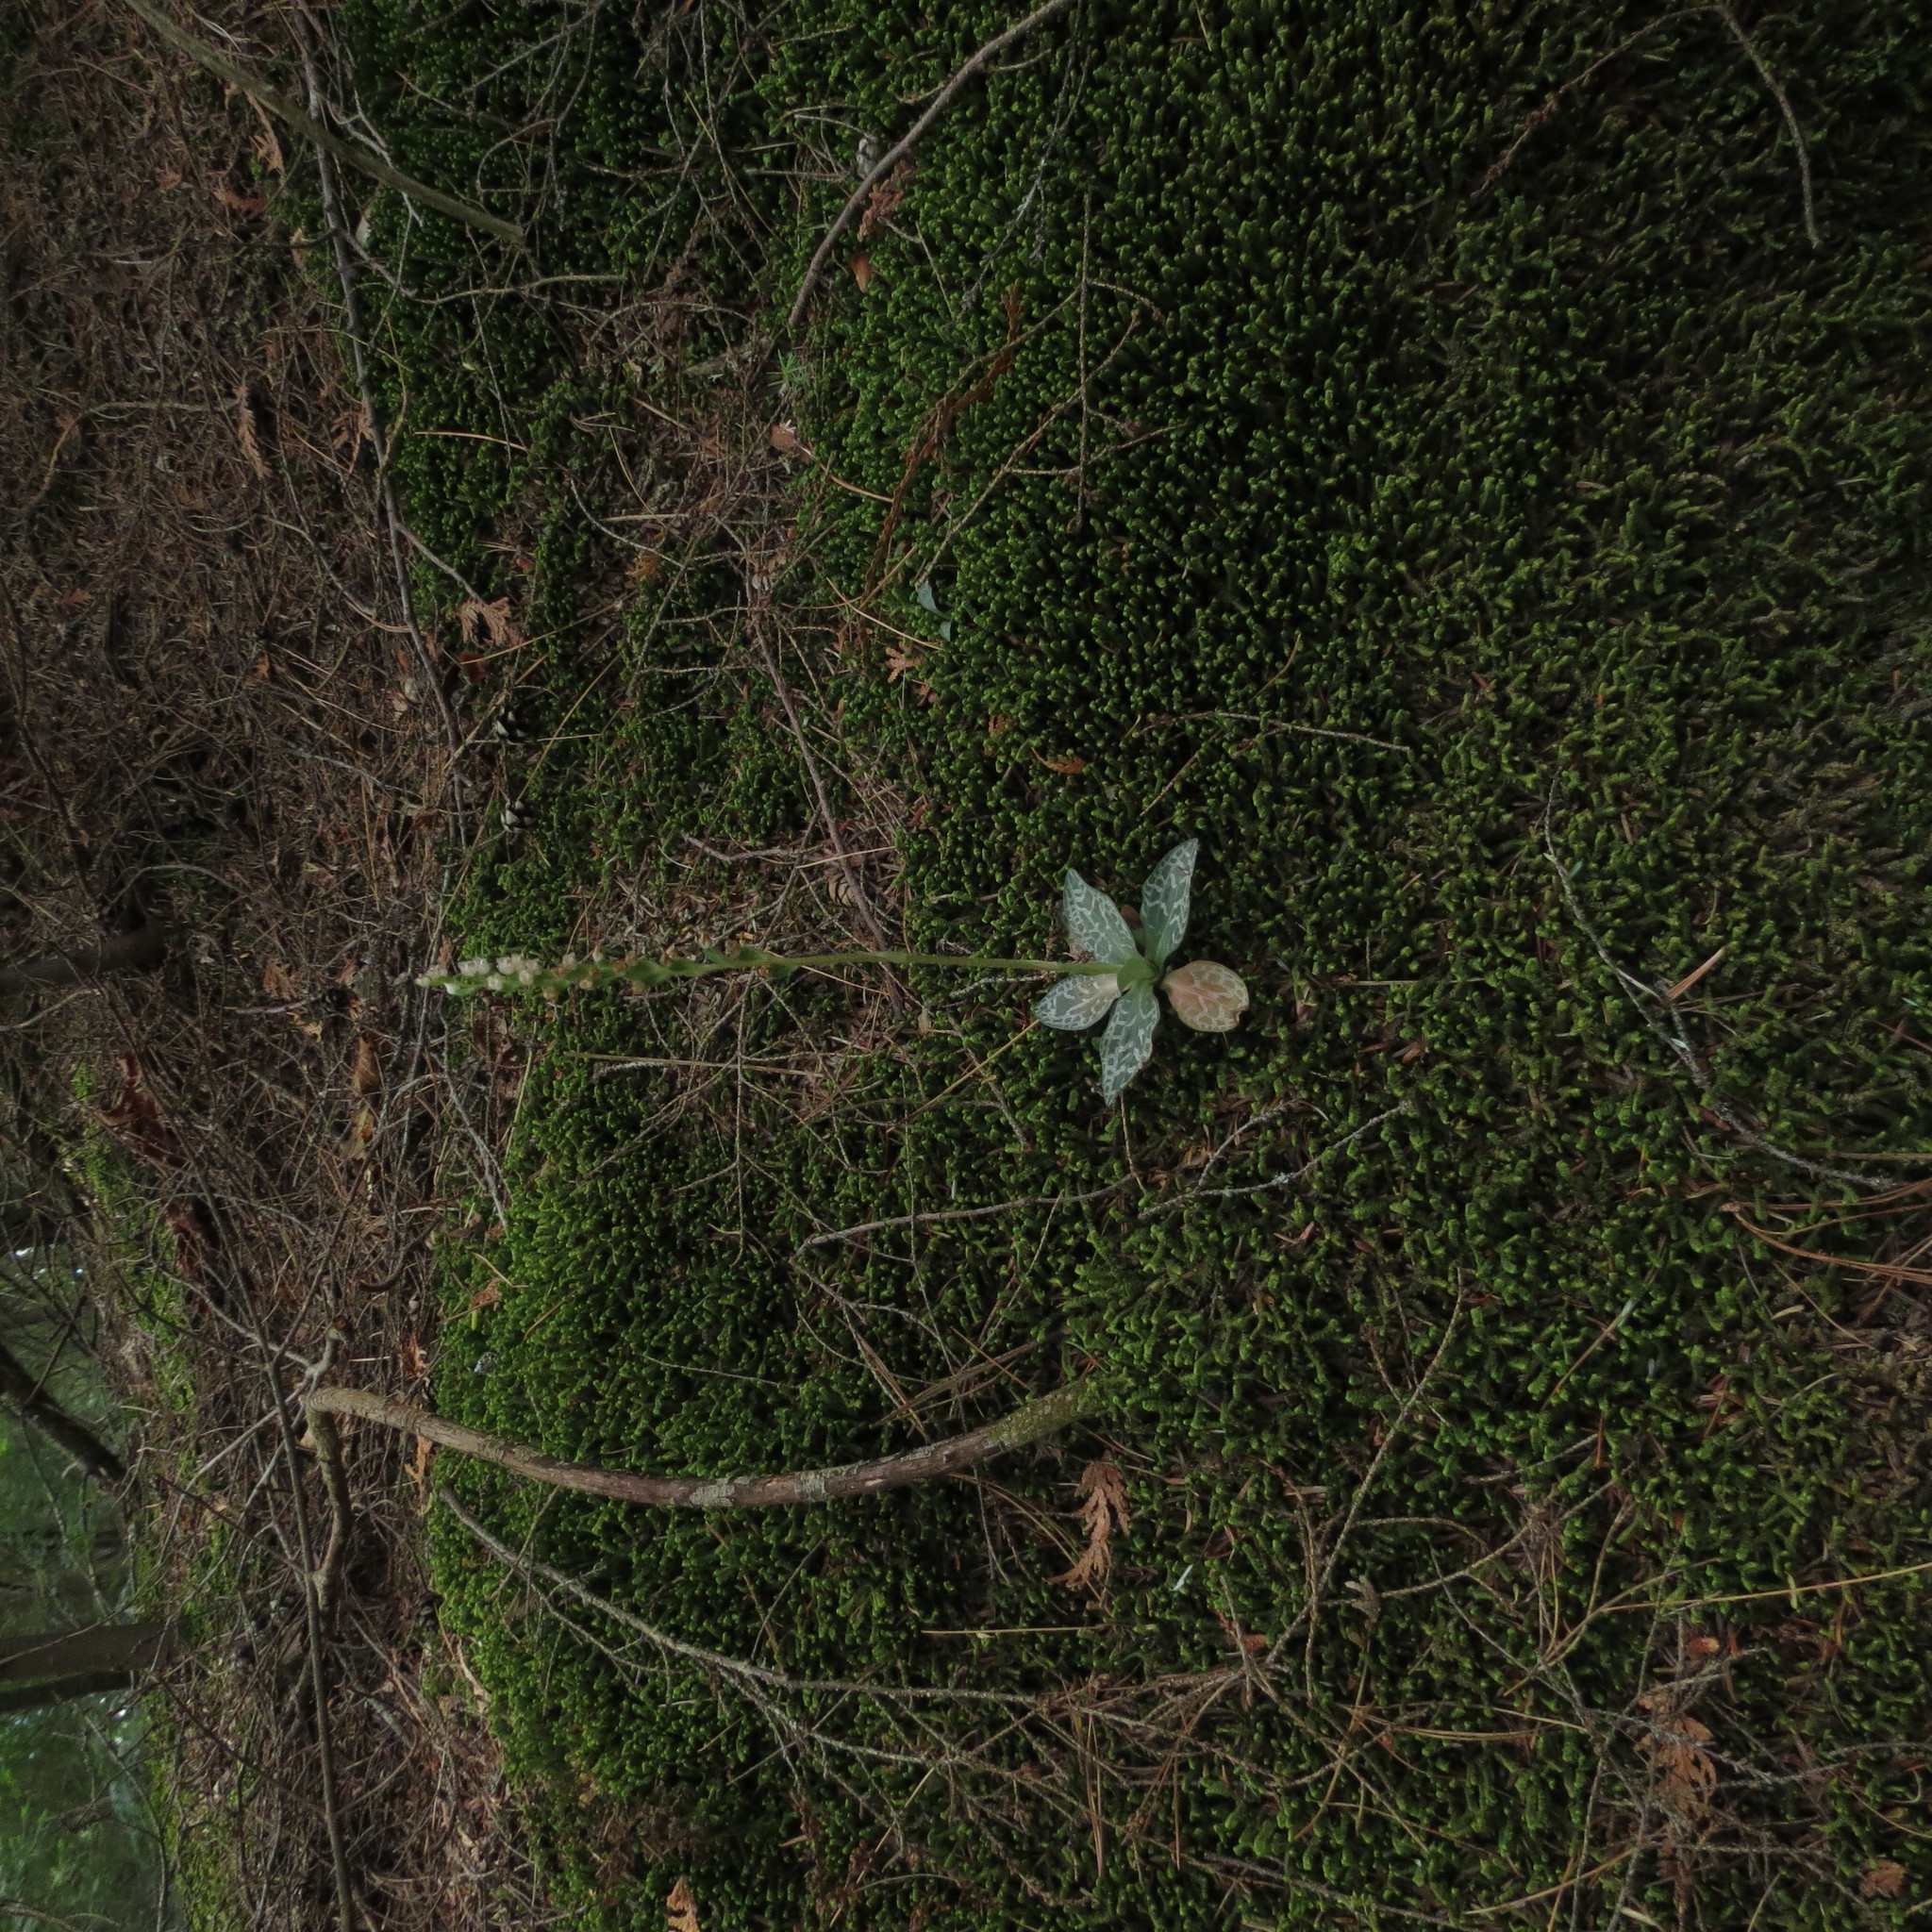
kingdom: Plantae
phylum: Tracheophyta
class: Liliopsida
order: Asparagales
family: Orchidaceae
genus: Goodyera
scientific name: Goodyera repens
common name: Creeping lady's-tresses
